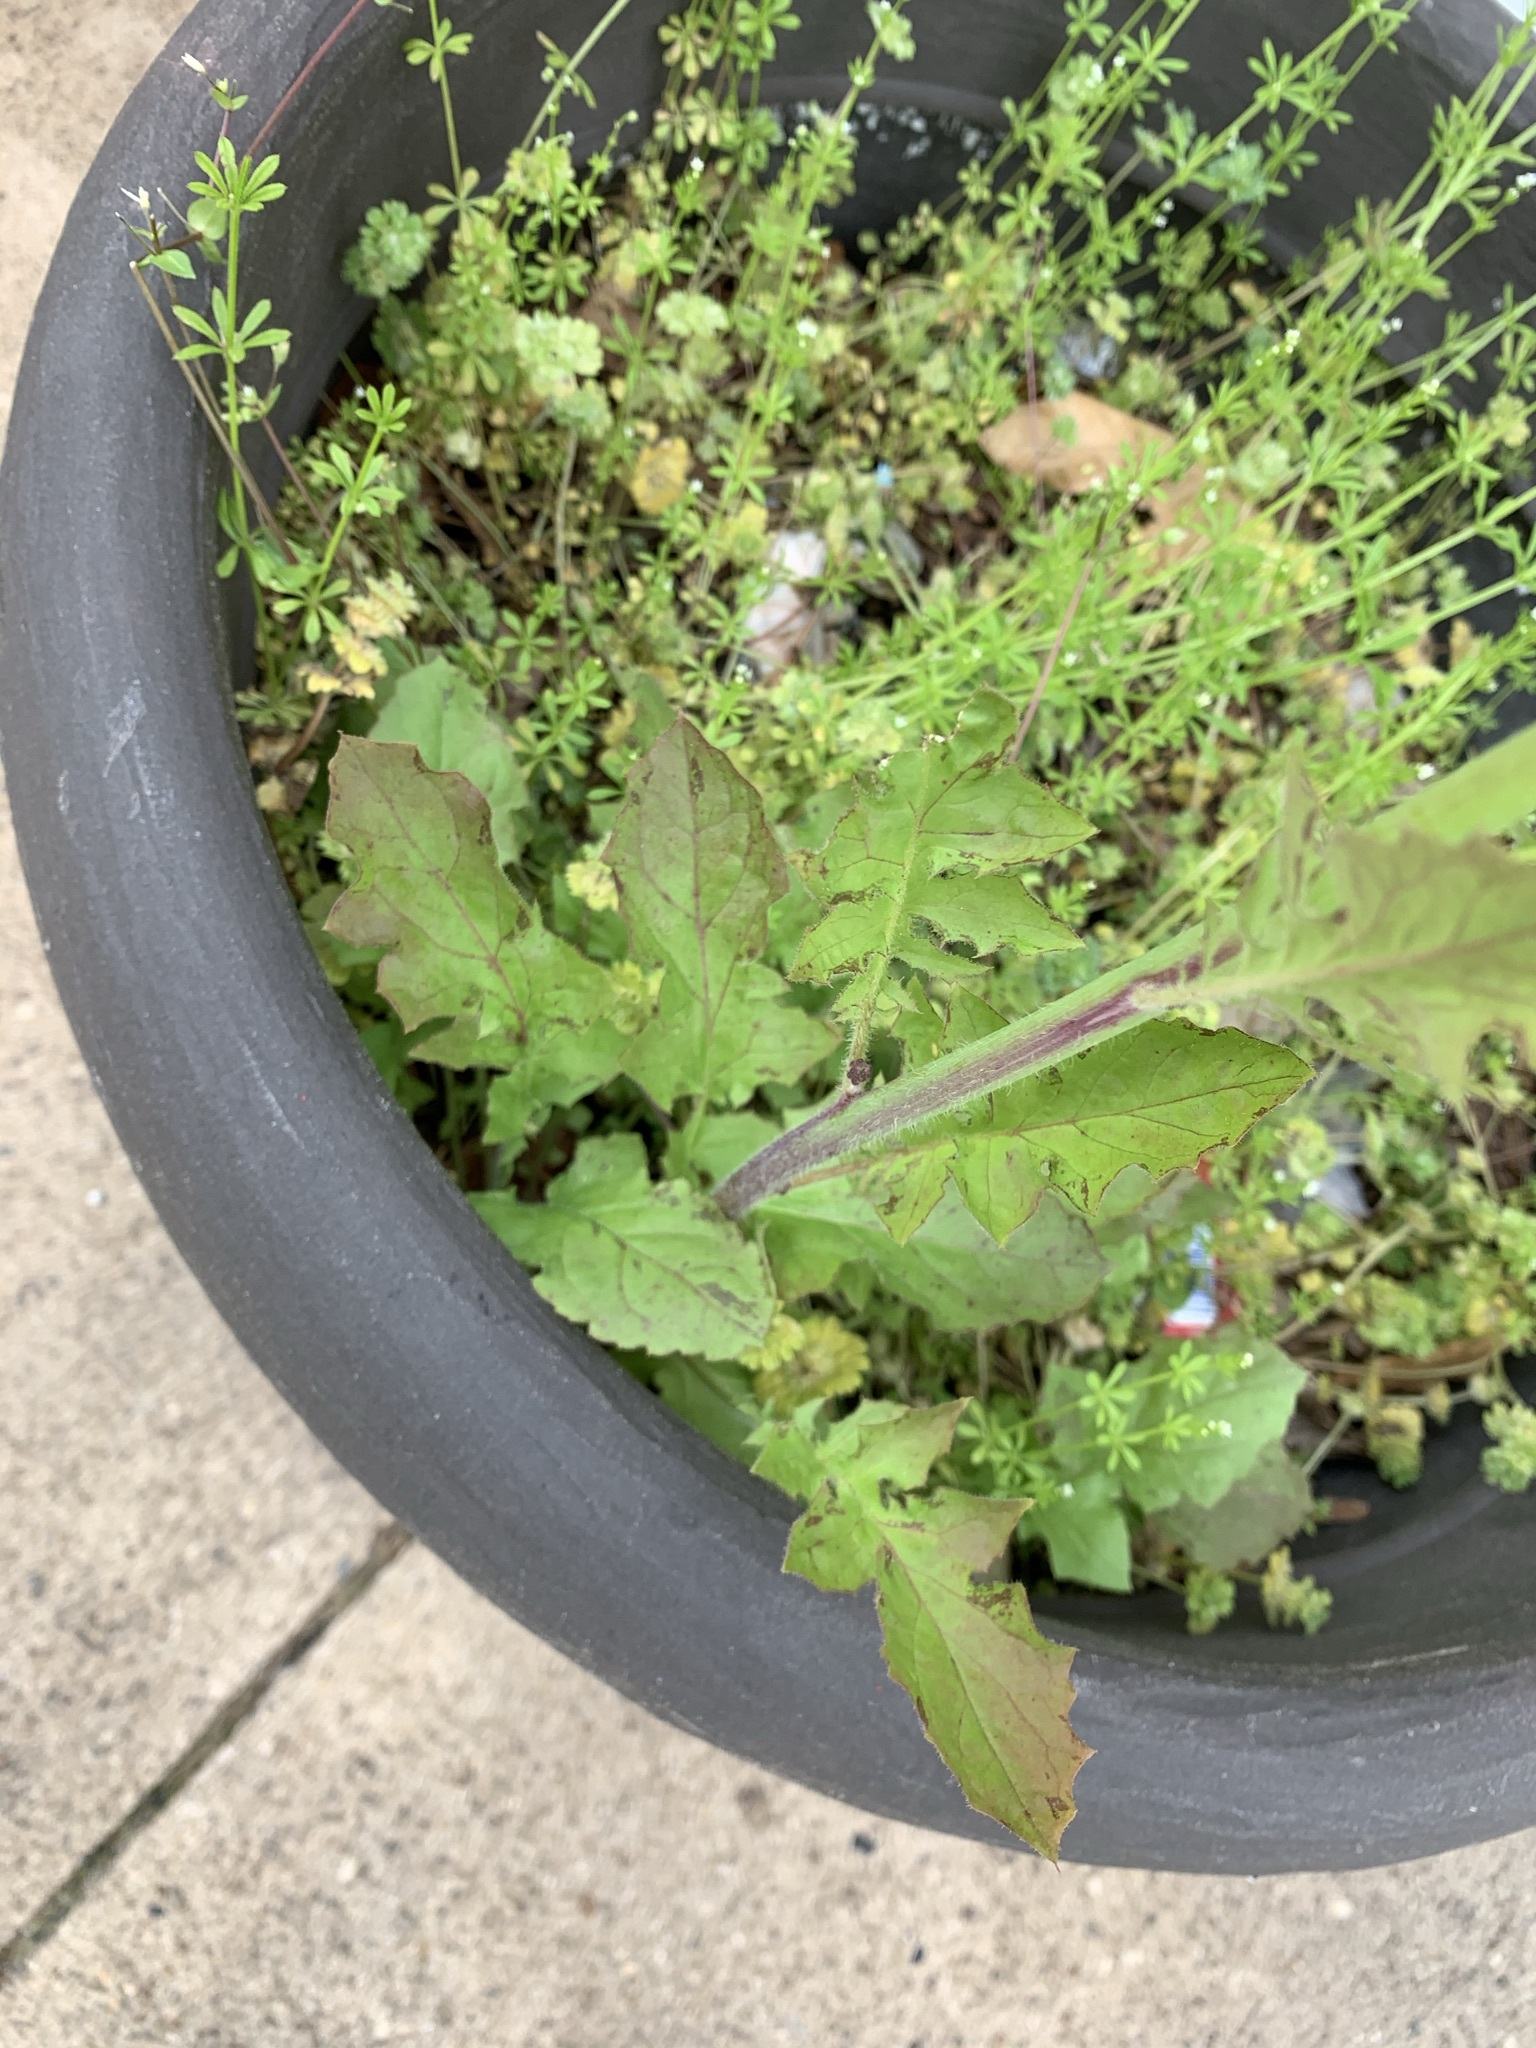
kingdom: Plantae
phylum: Tracheophyta
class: Magnoliopsida
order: Gentianales
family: Rubiaceae
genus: Galium
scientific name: Galium aparine
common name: Cleavers
